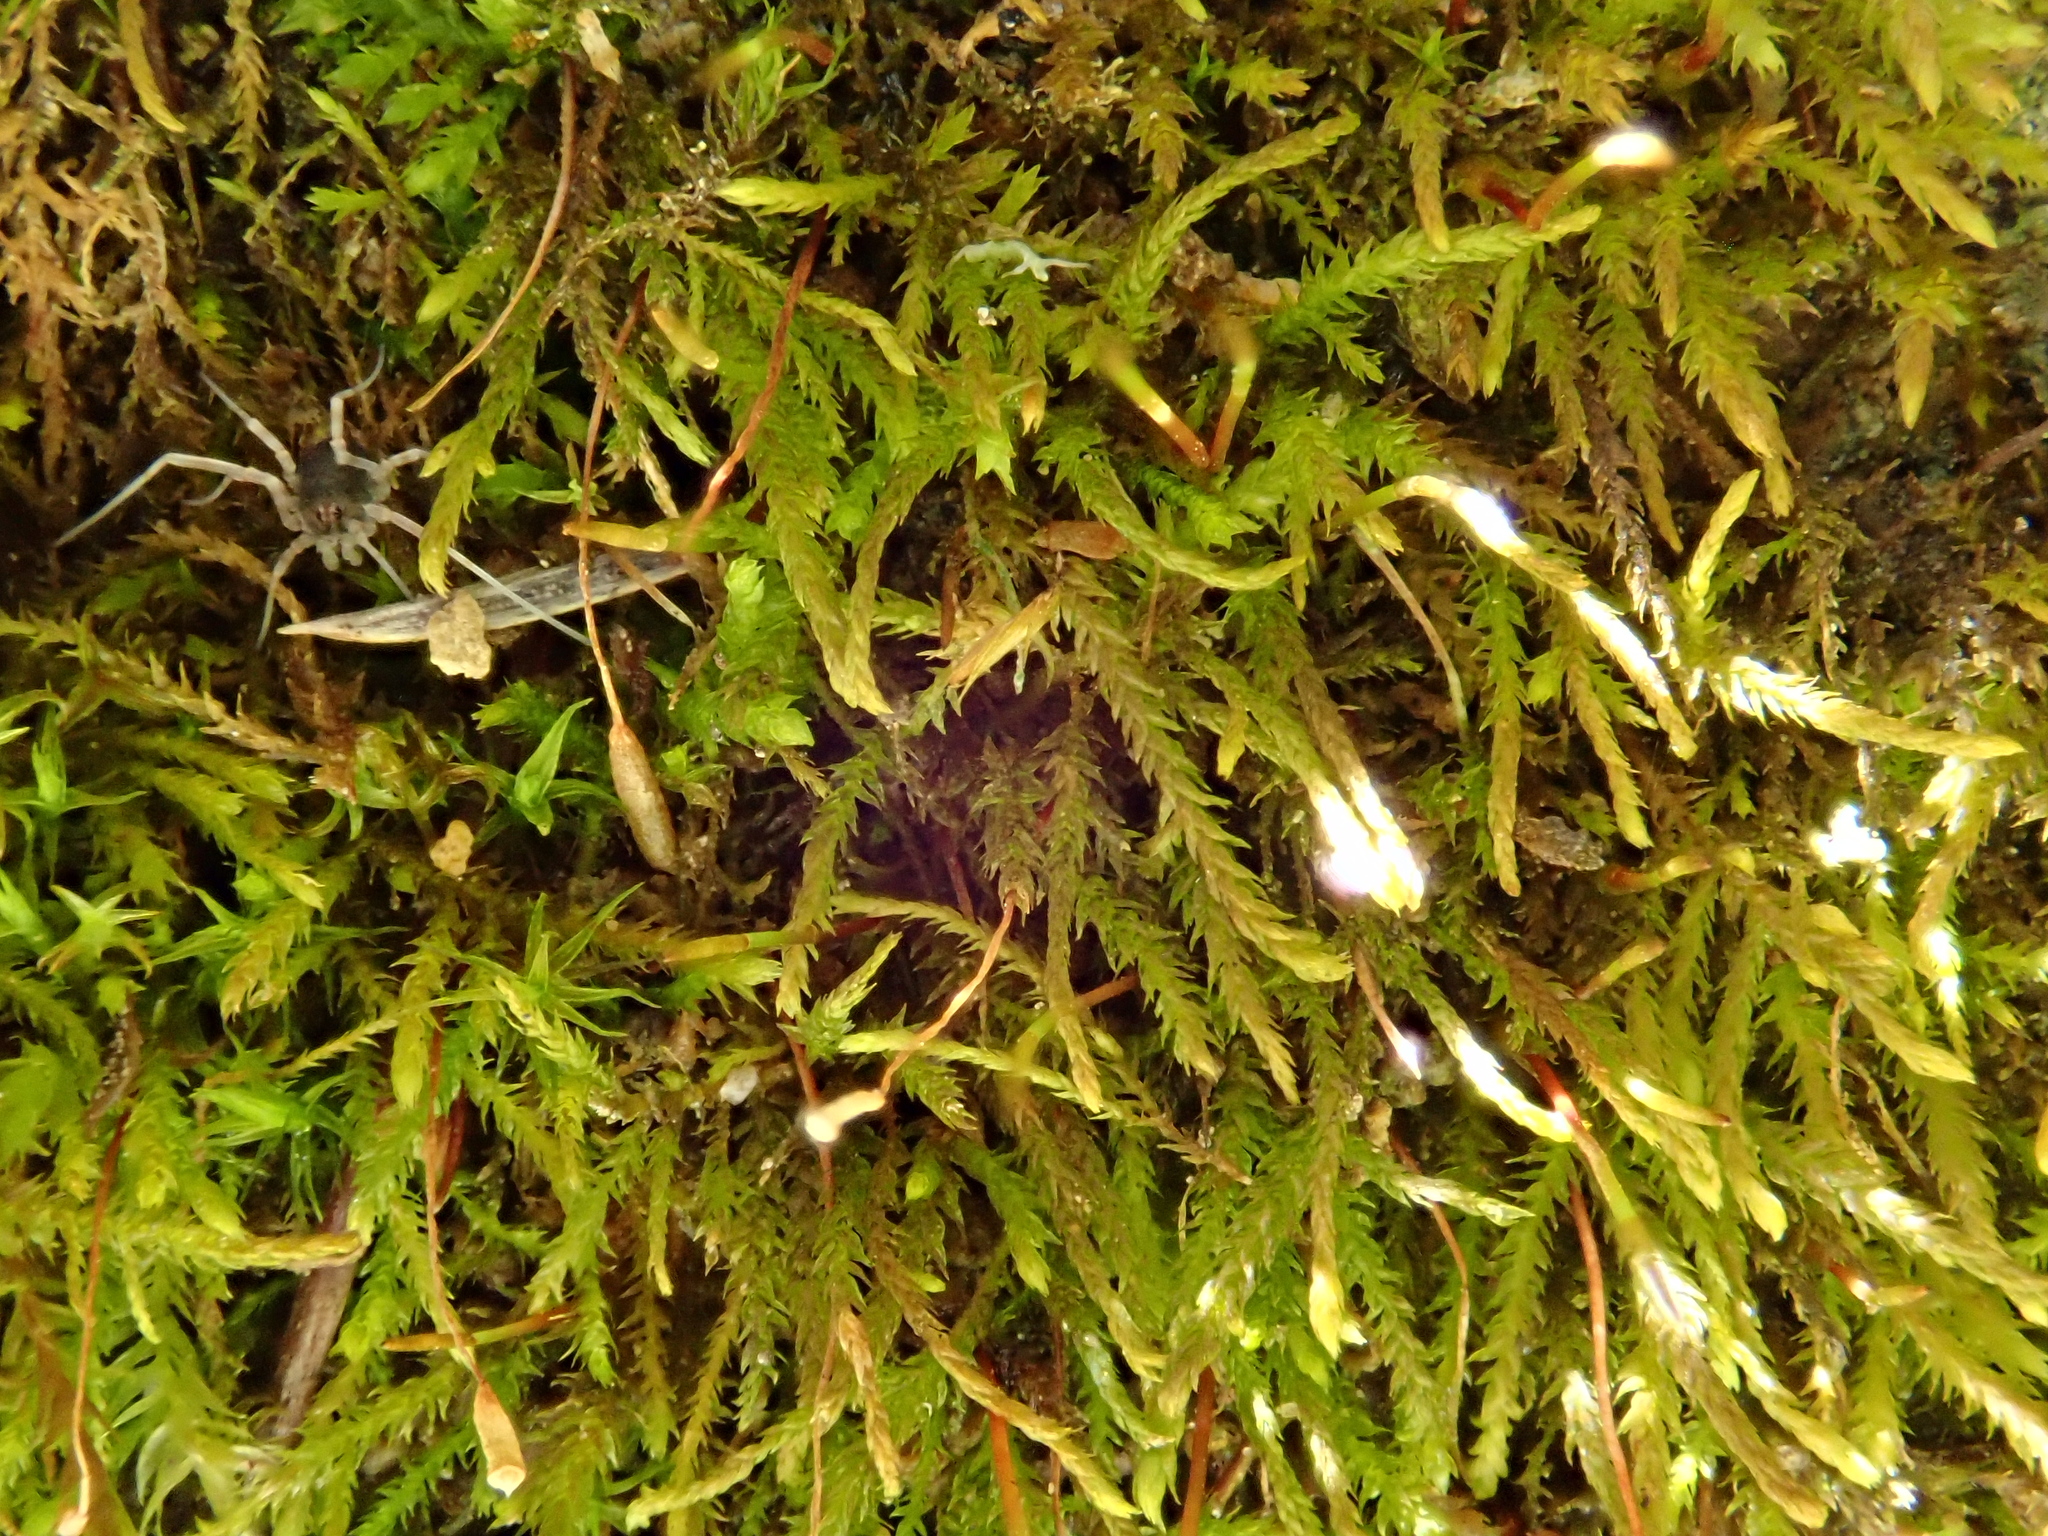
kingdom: Plantae
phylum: Bryophyta
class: Bryopsida
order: Hypnales
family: Leskeaceae
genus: Leskea
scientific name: Leskea polycarpa
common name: Many-fruited leske's moss
